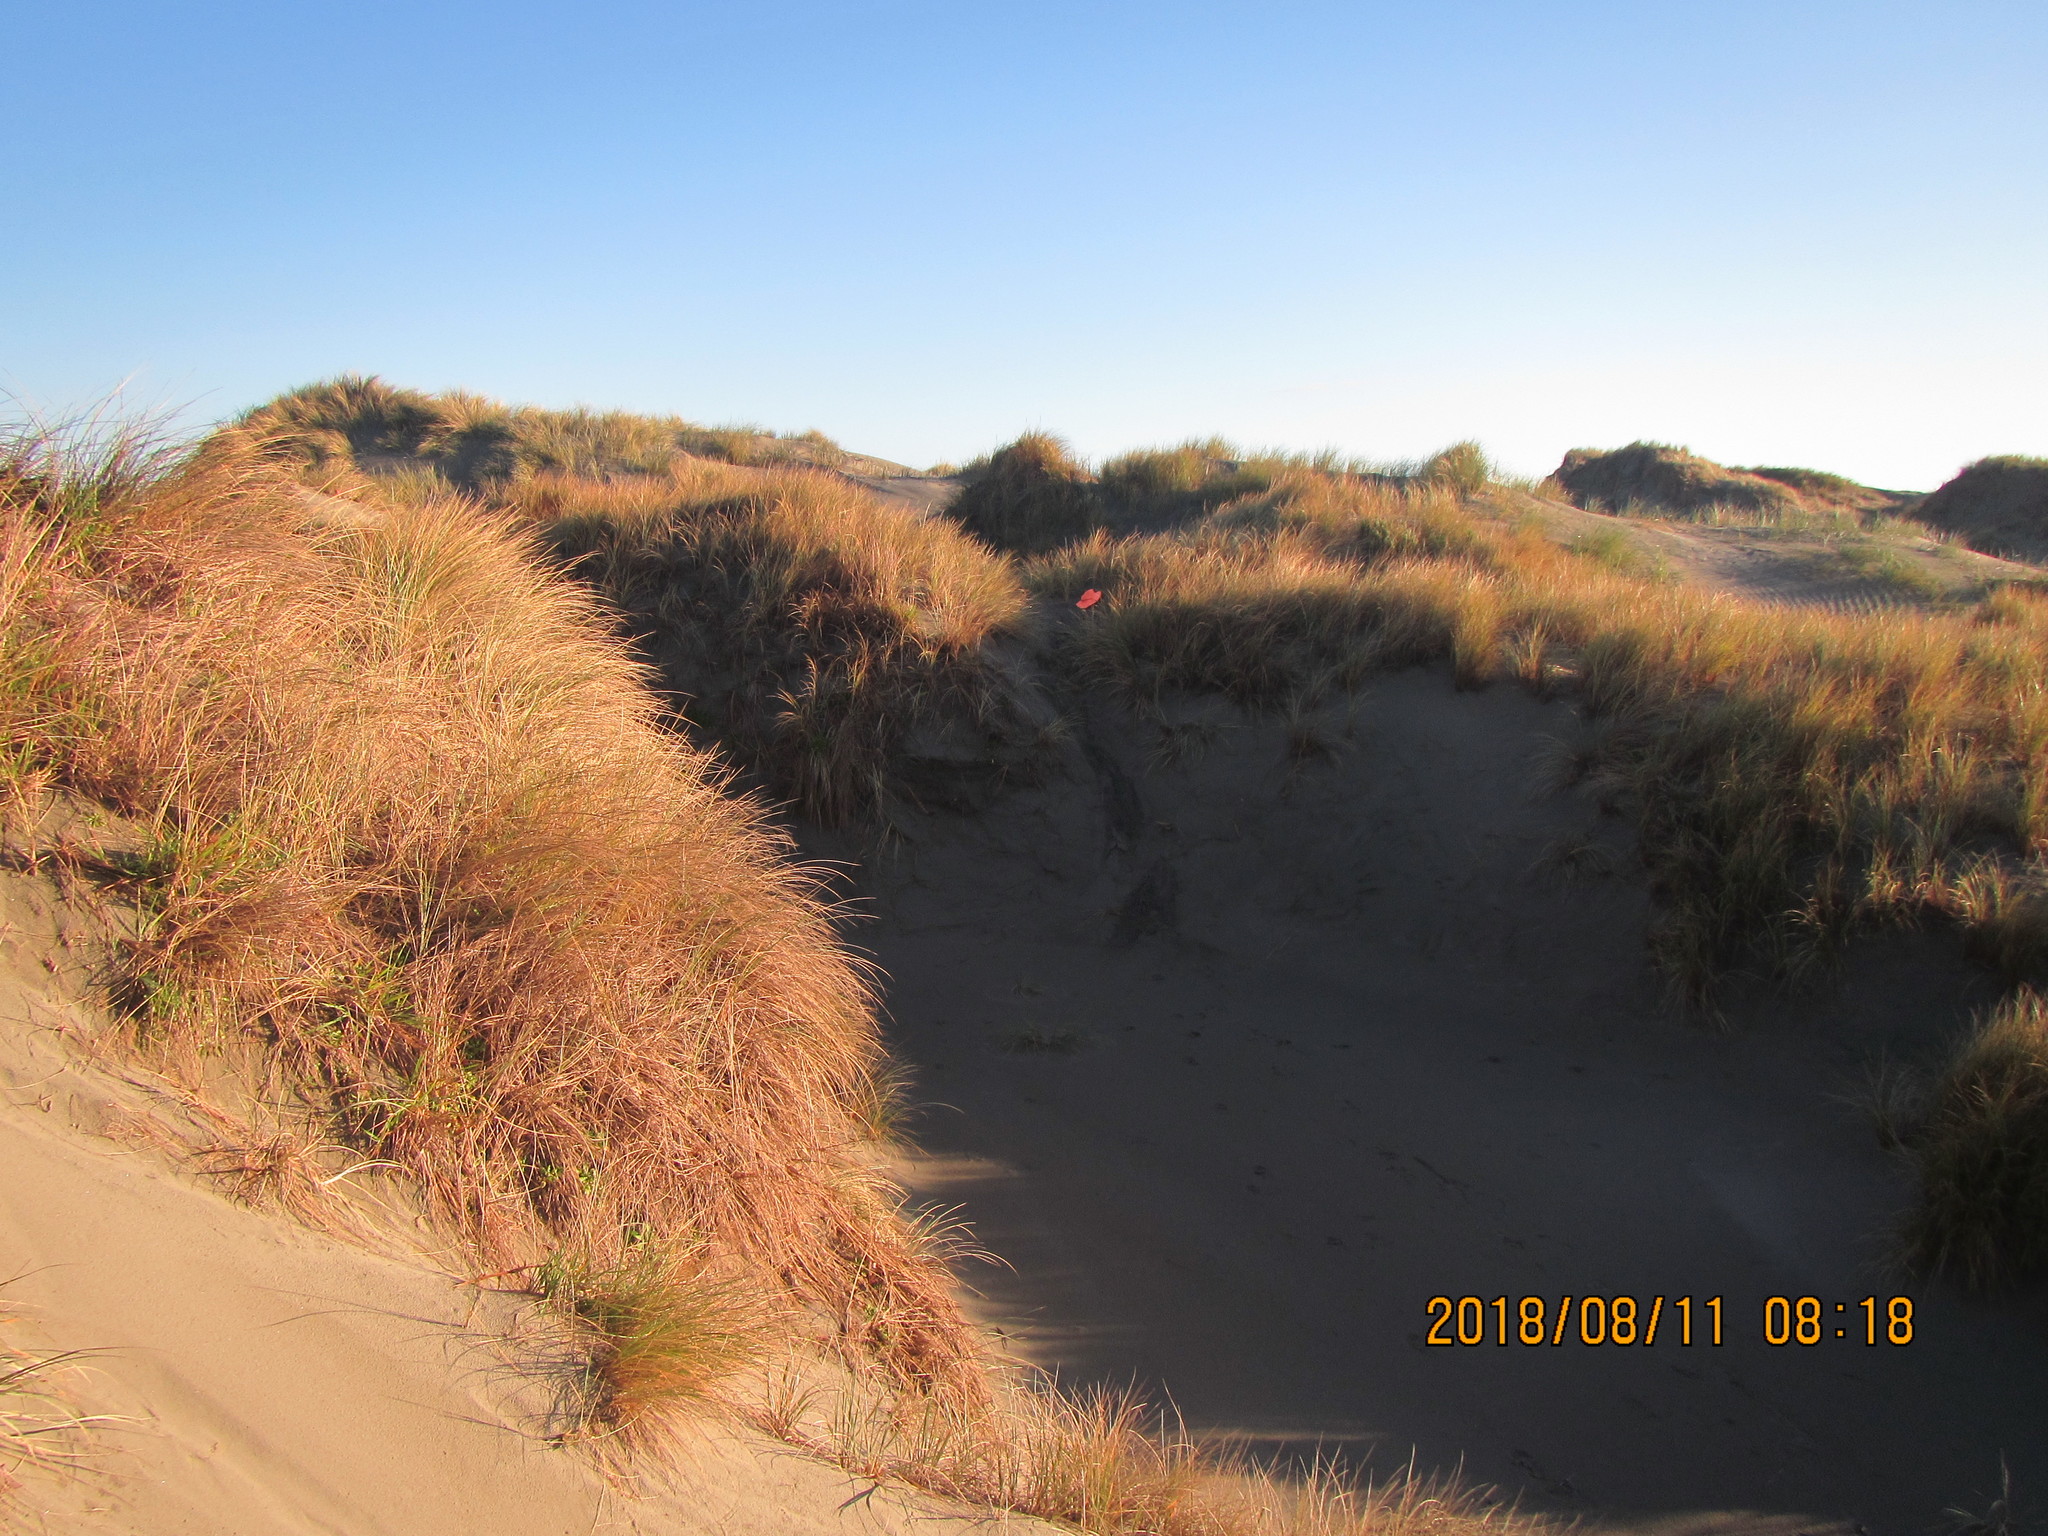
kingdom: Plantae
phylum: Tracheophyta
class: Magnoliopsida
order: Malvales
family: Thymelaeaceae
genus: Pimelea
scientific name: Pimelea villosa
